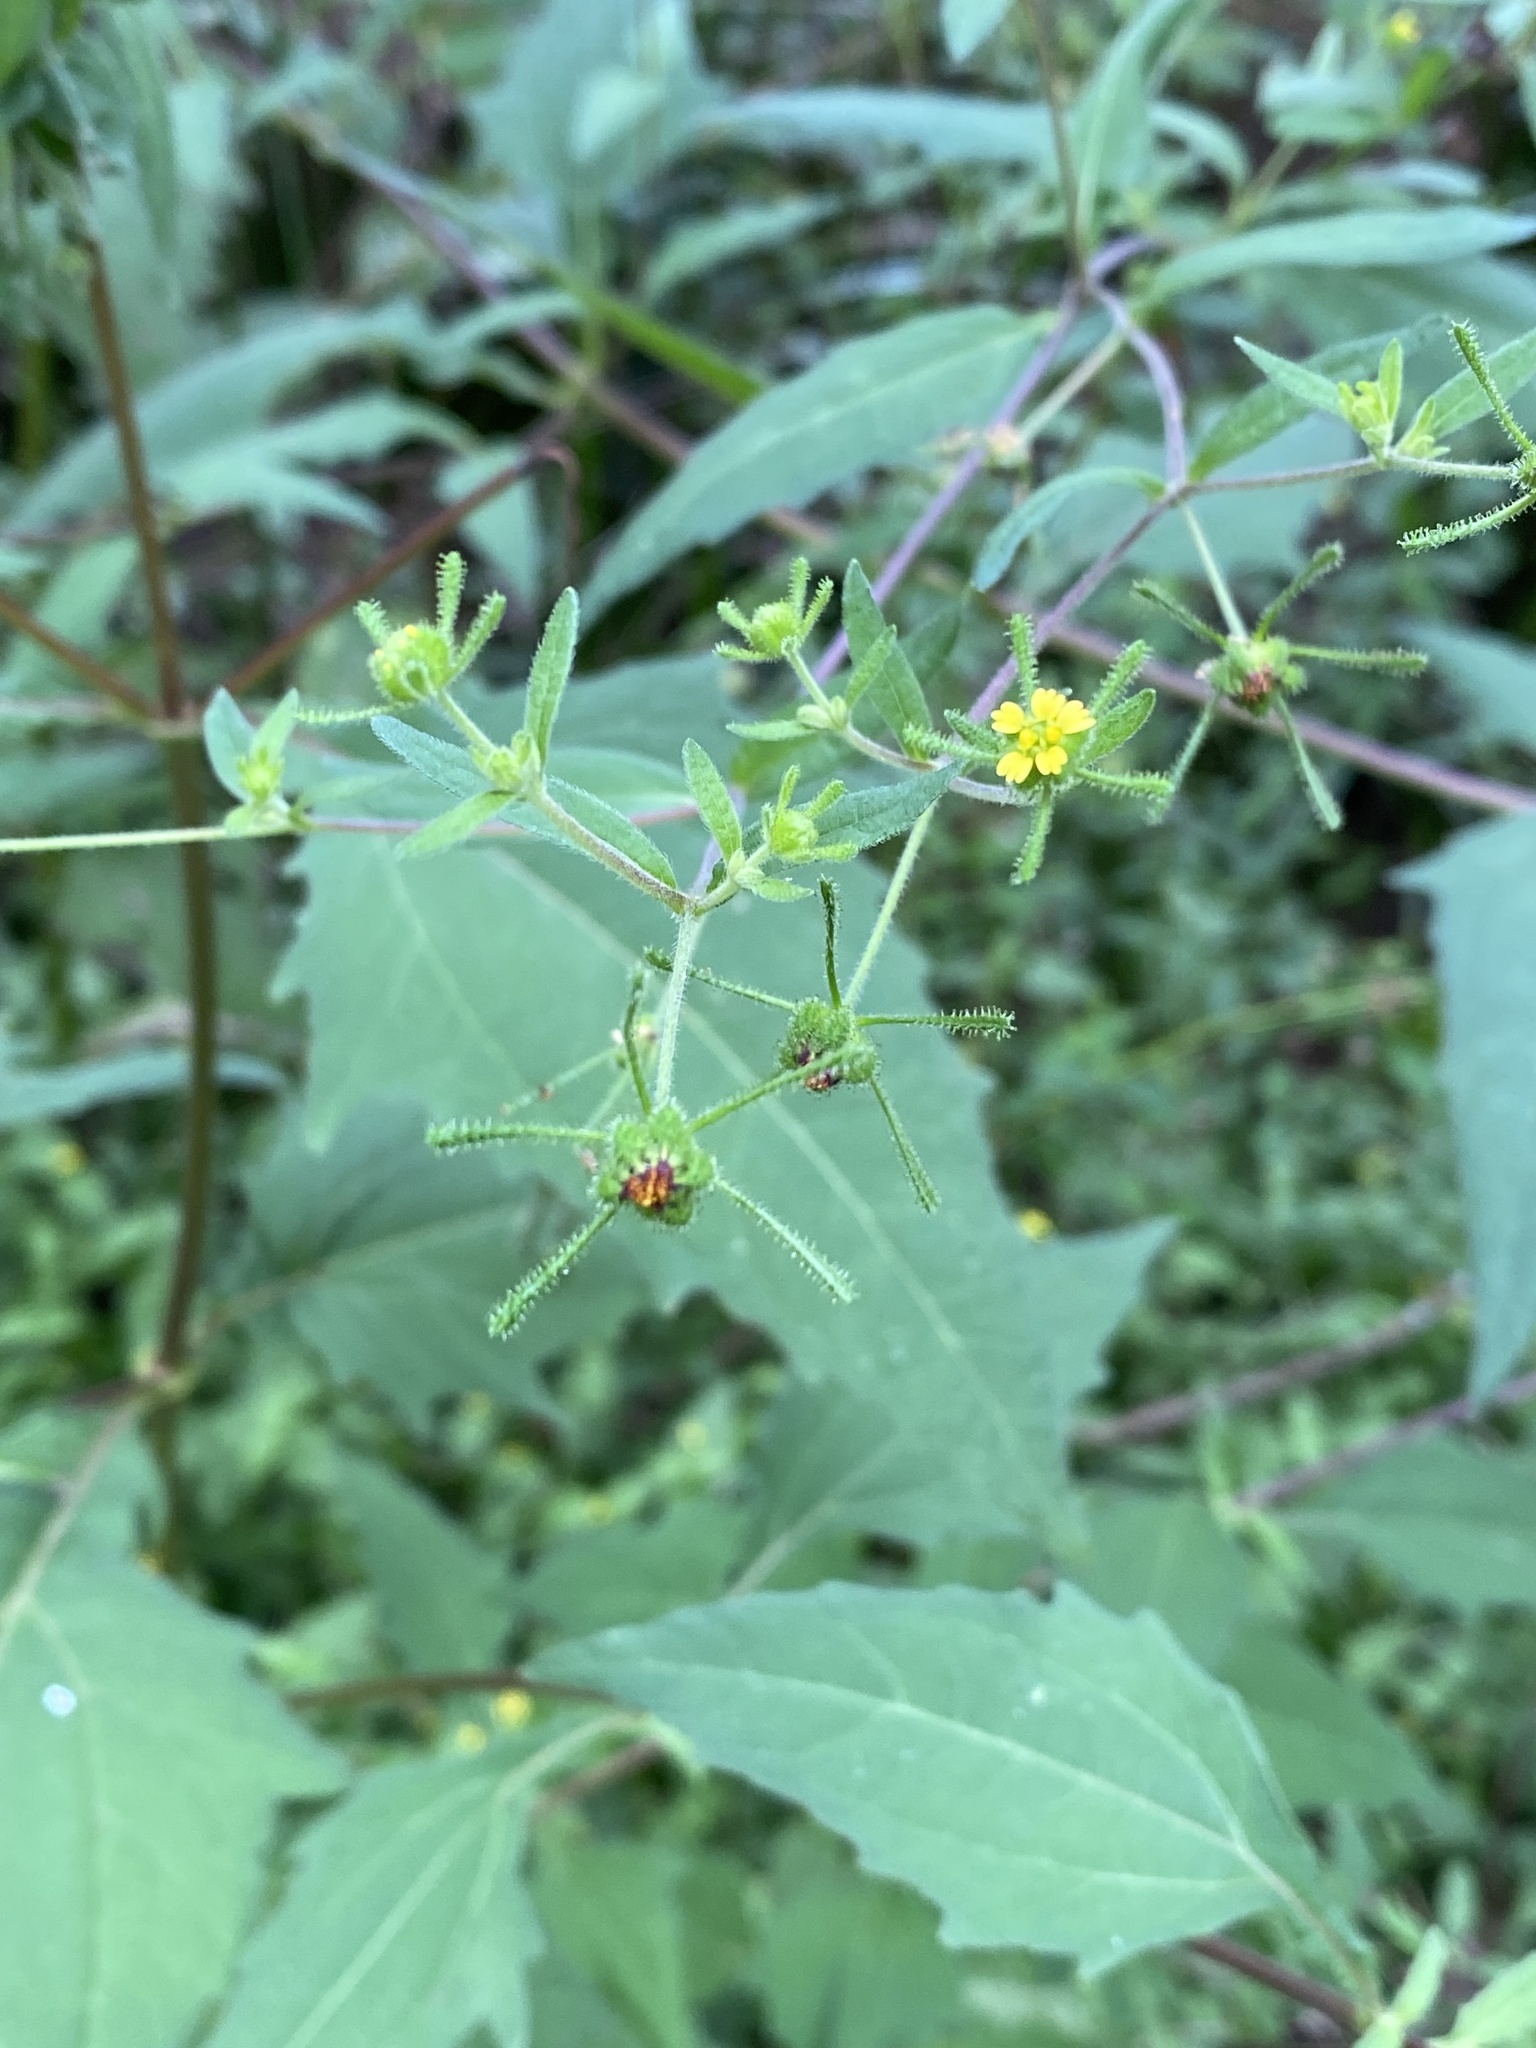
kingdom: Plantae
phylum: Tracheophyta
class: Magnoliopsida
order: Asterales
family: Asteraceae
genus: Sigesbeckia
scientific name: Sigesbeckia orientalis
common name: Eastern st paul's-wort
